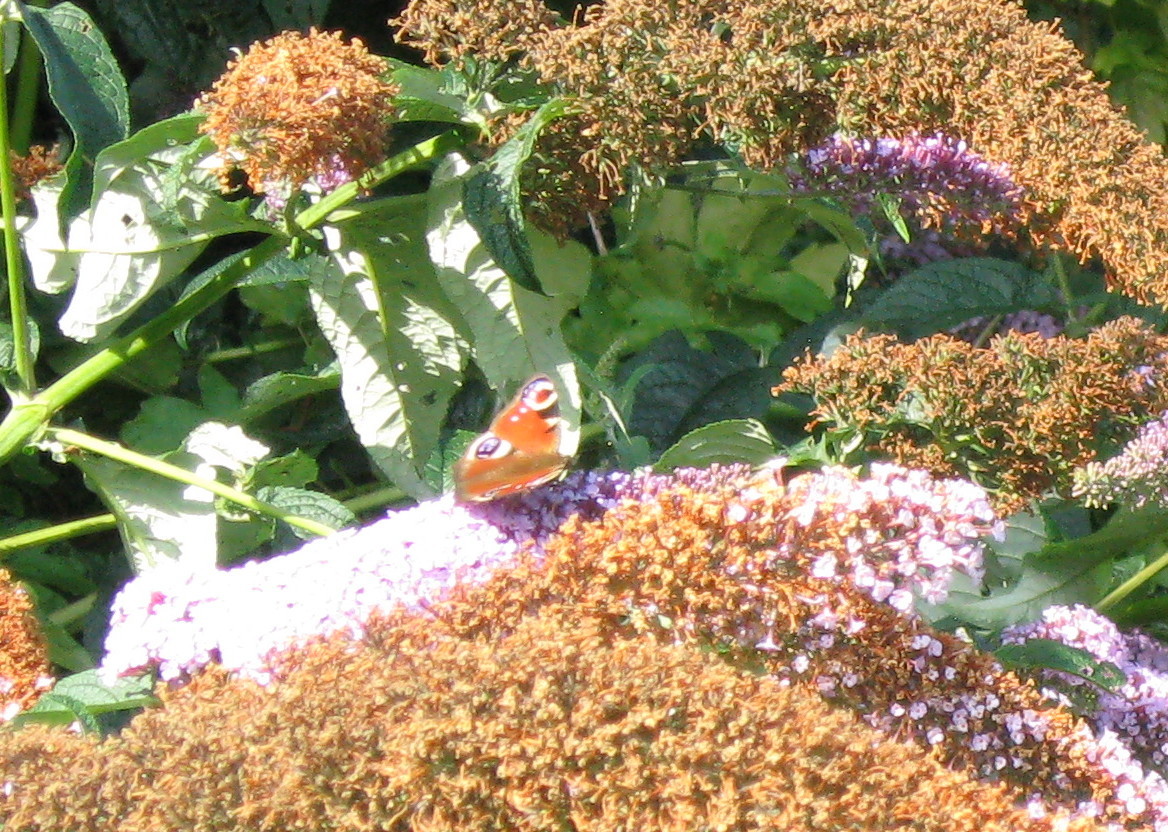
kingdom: Animalia
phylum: Arthropoda
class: Insecta
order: Lepidoptera
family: Nymphalidae
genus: Aglais
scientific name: Aglais io
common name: Peacock
